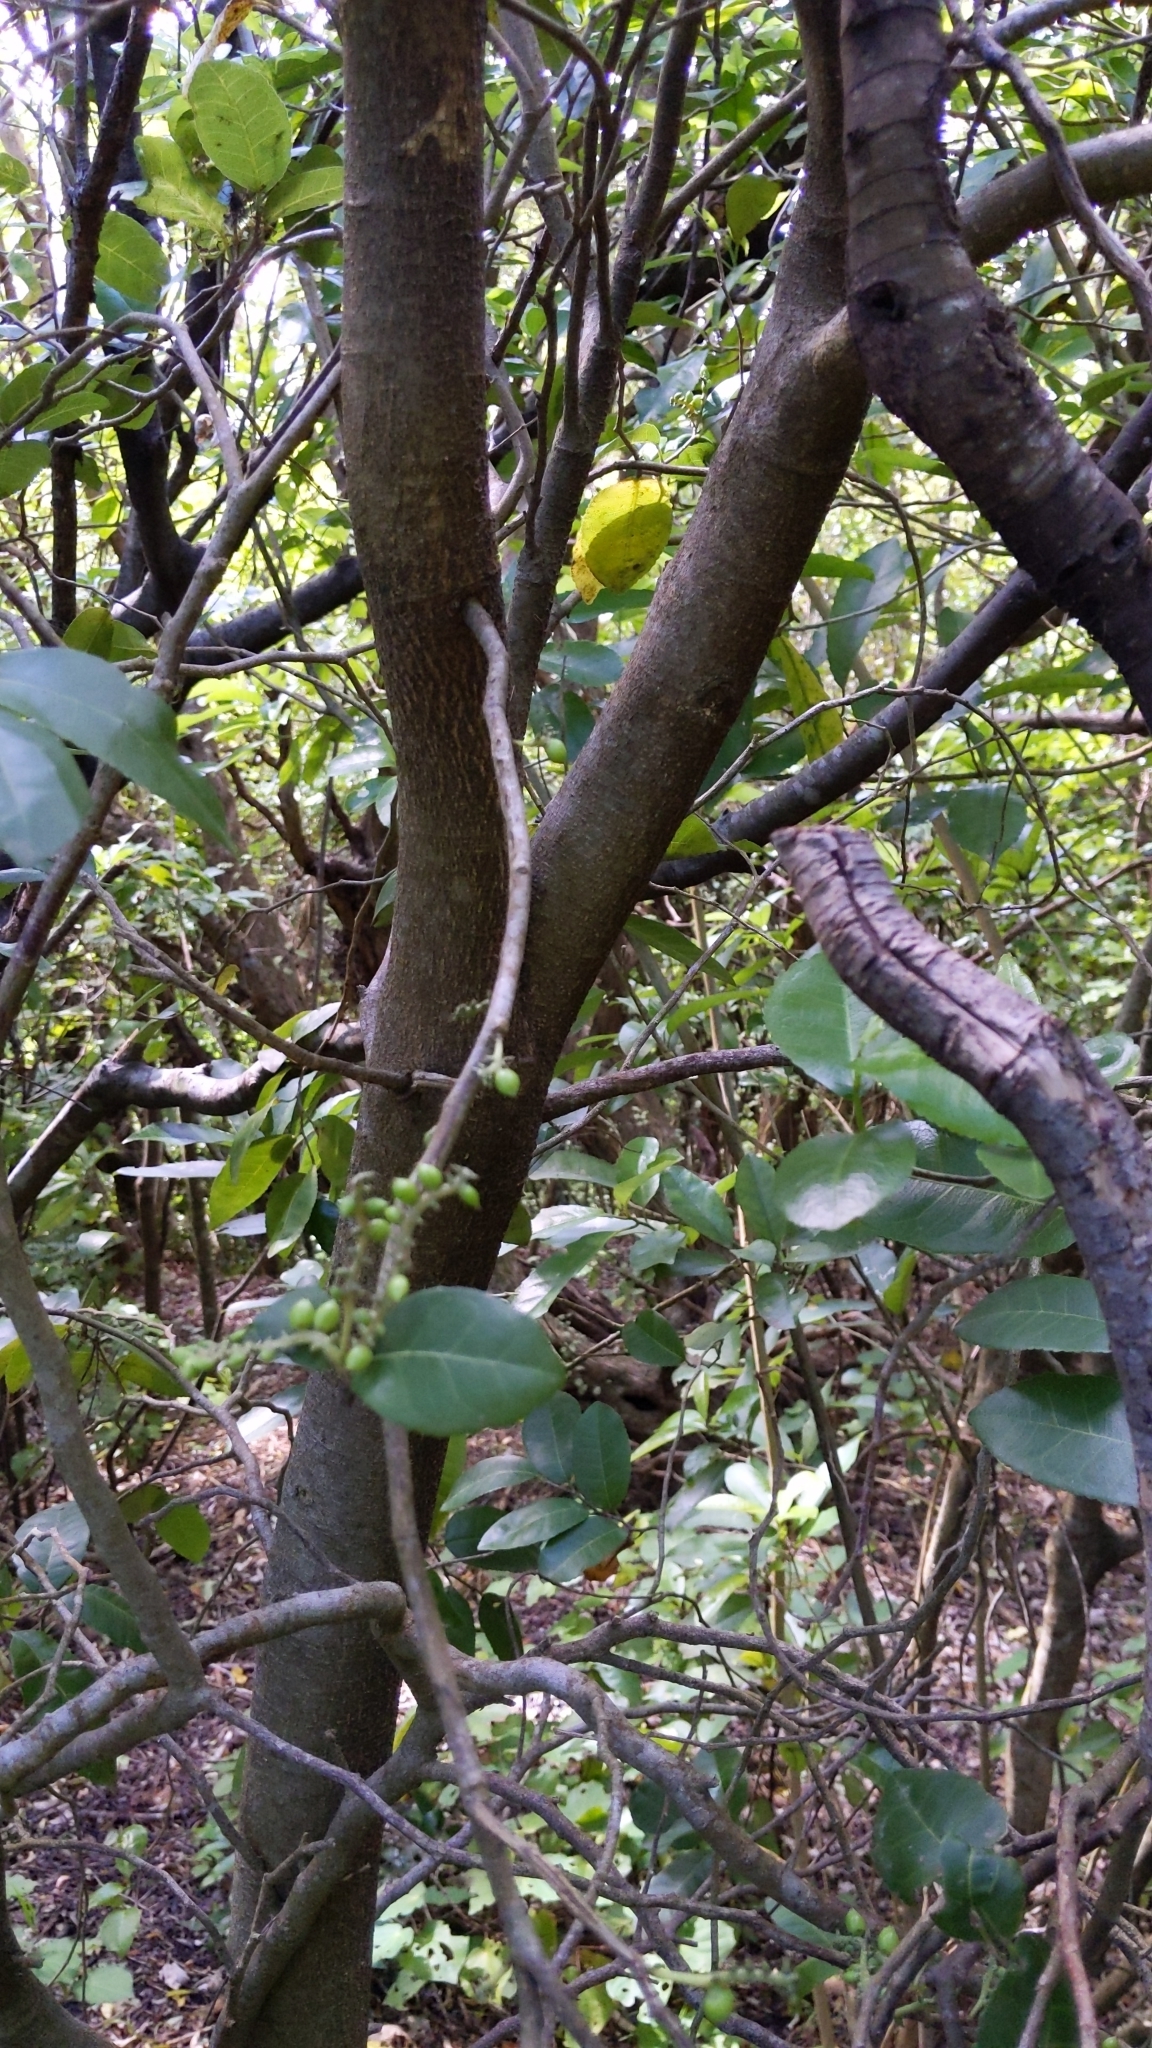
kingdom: Plantae
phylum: Tracheophyta
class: Magnoliopsida
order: Rosales
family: Moraceae
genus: Paratrophis
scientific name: Paratrophis banksii
